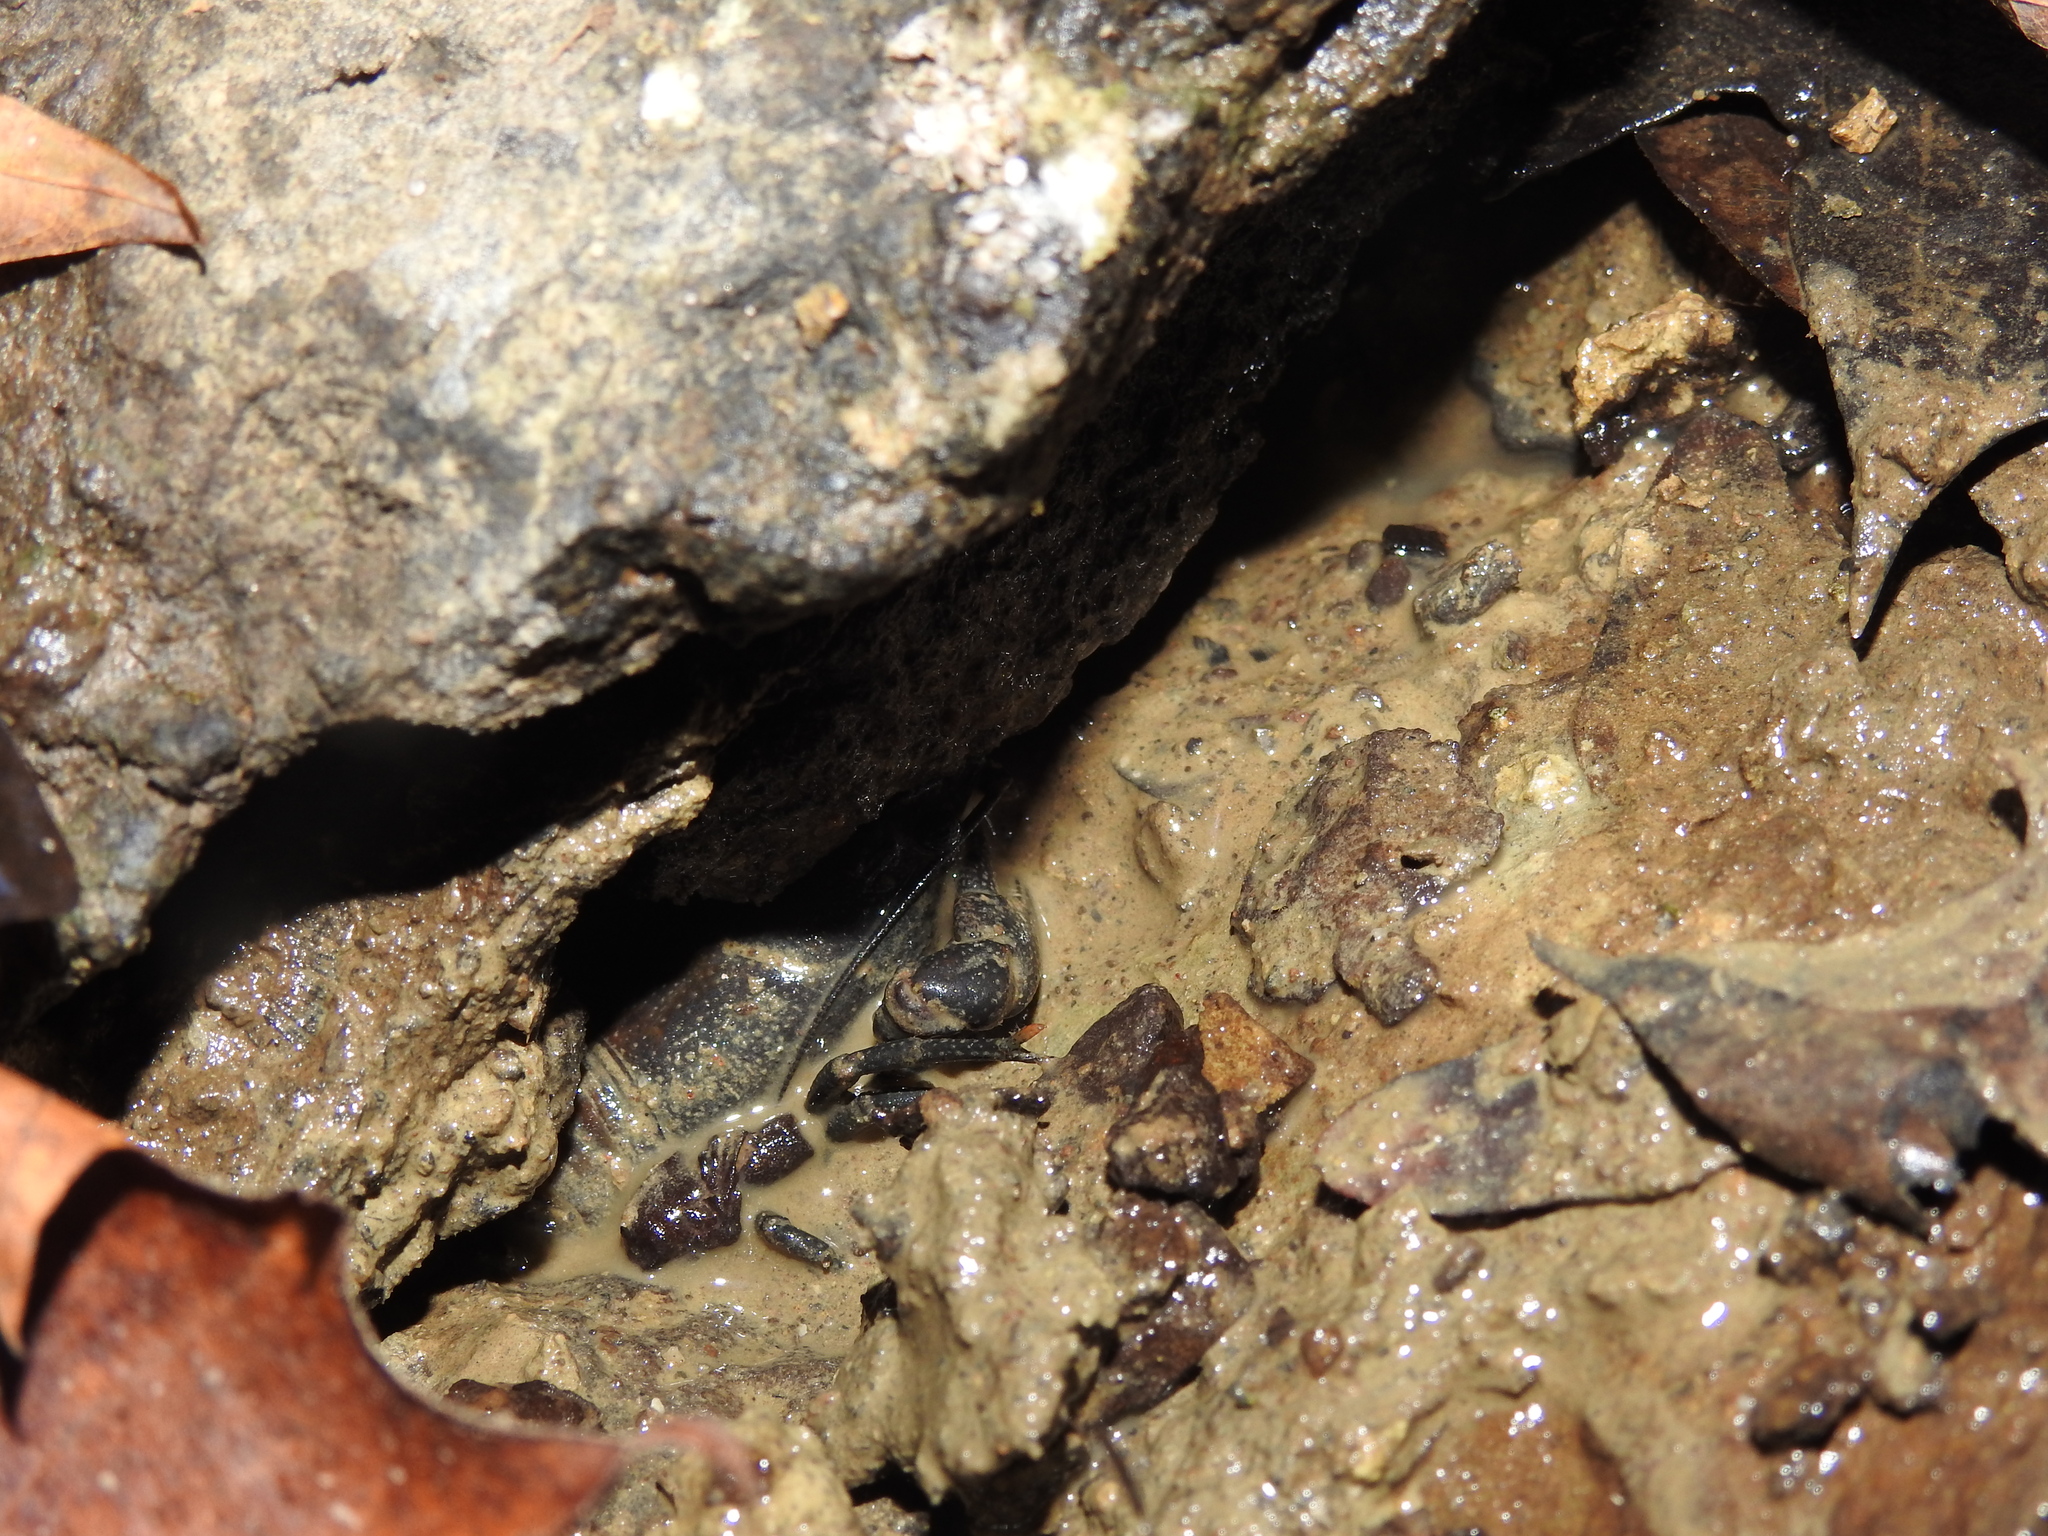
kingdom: Animalia
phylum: Arthropoda
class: Malacostraca
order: Decapoda
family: Cambaridae
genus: Faxonius
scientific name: Faxonius rusticus
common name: Rusty crayfish
